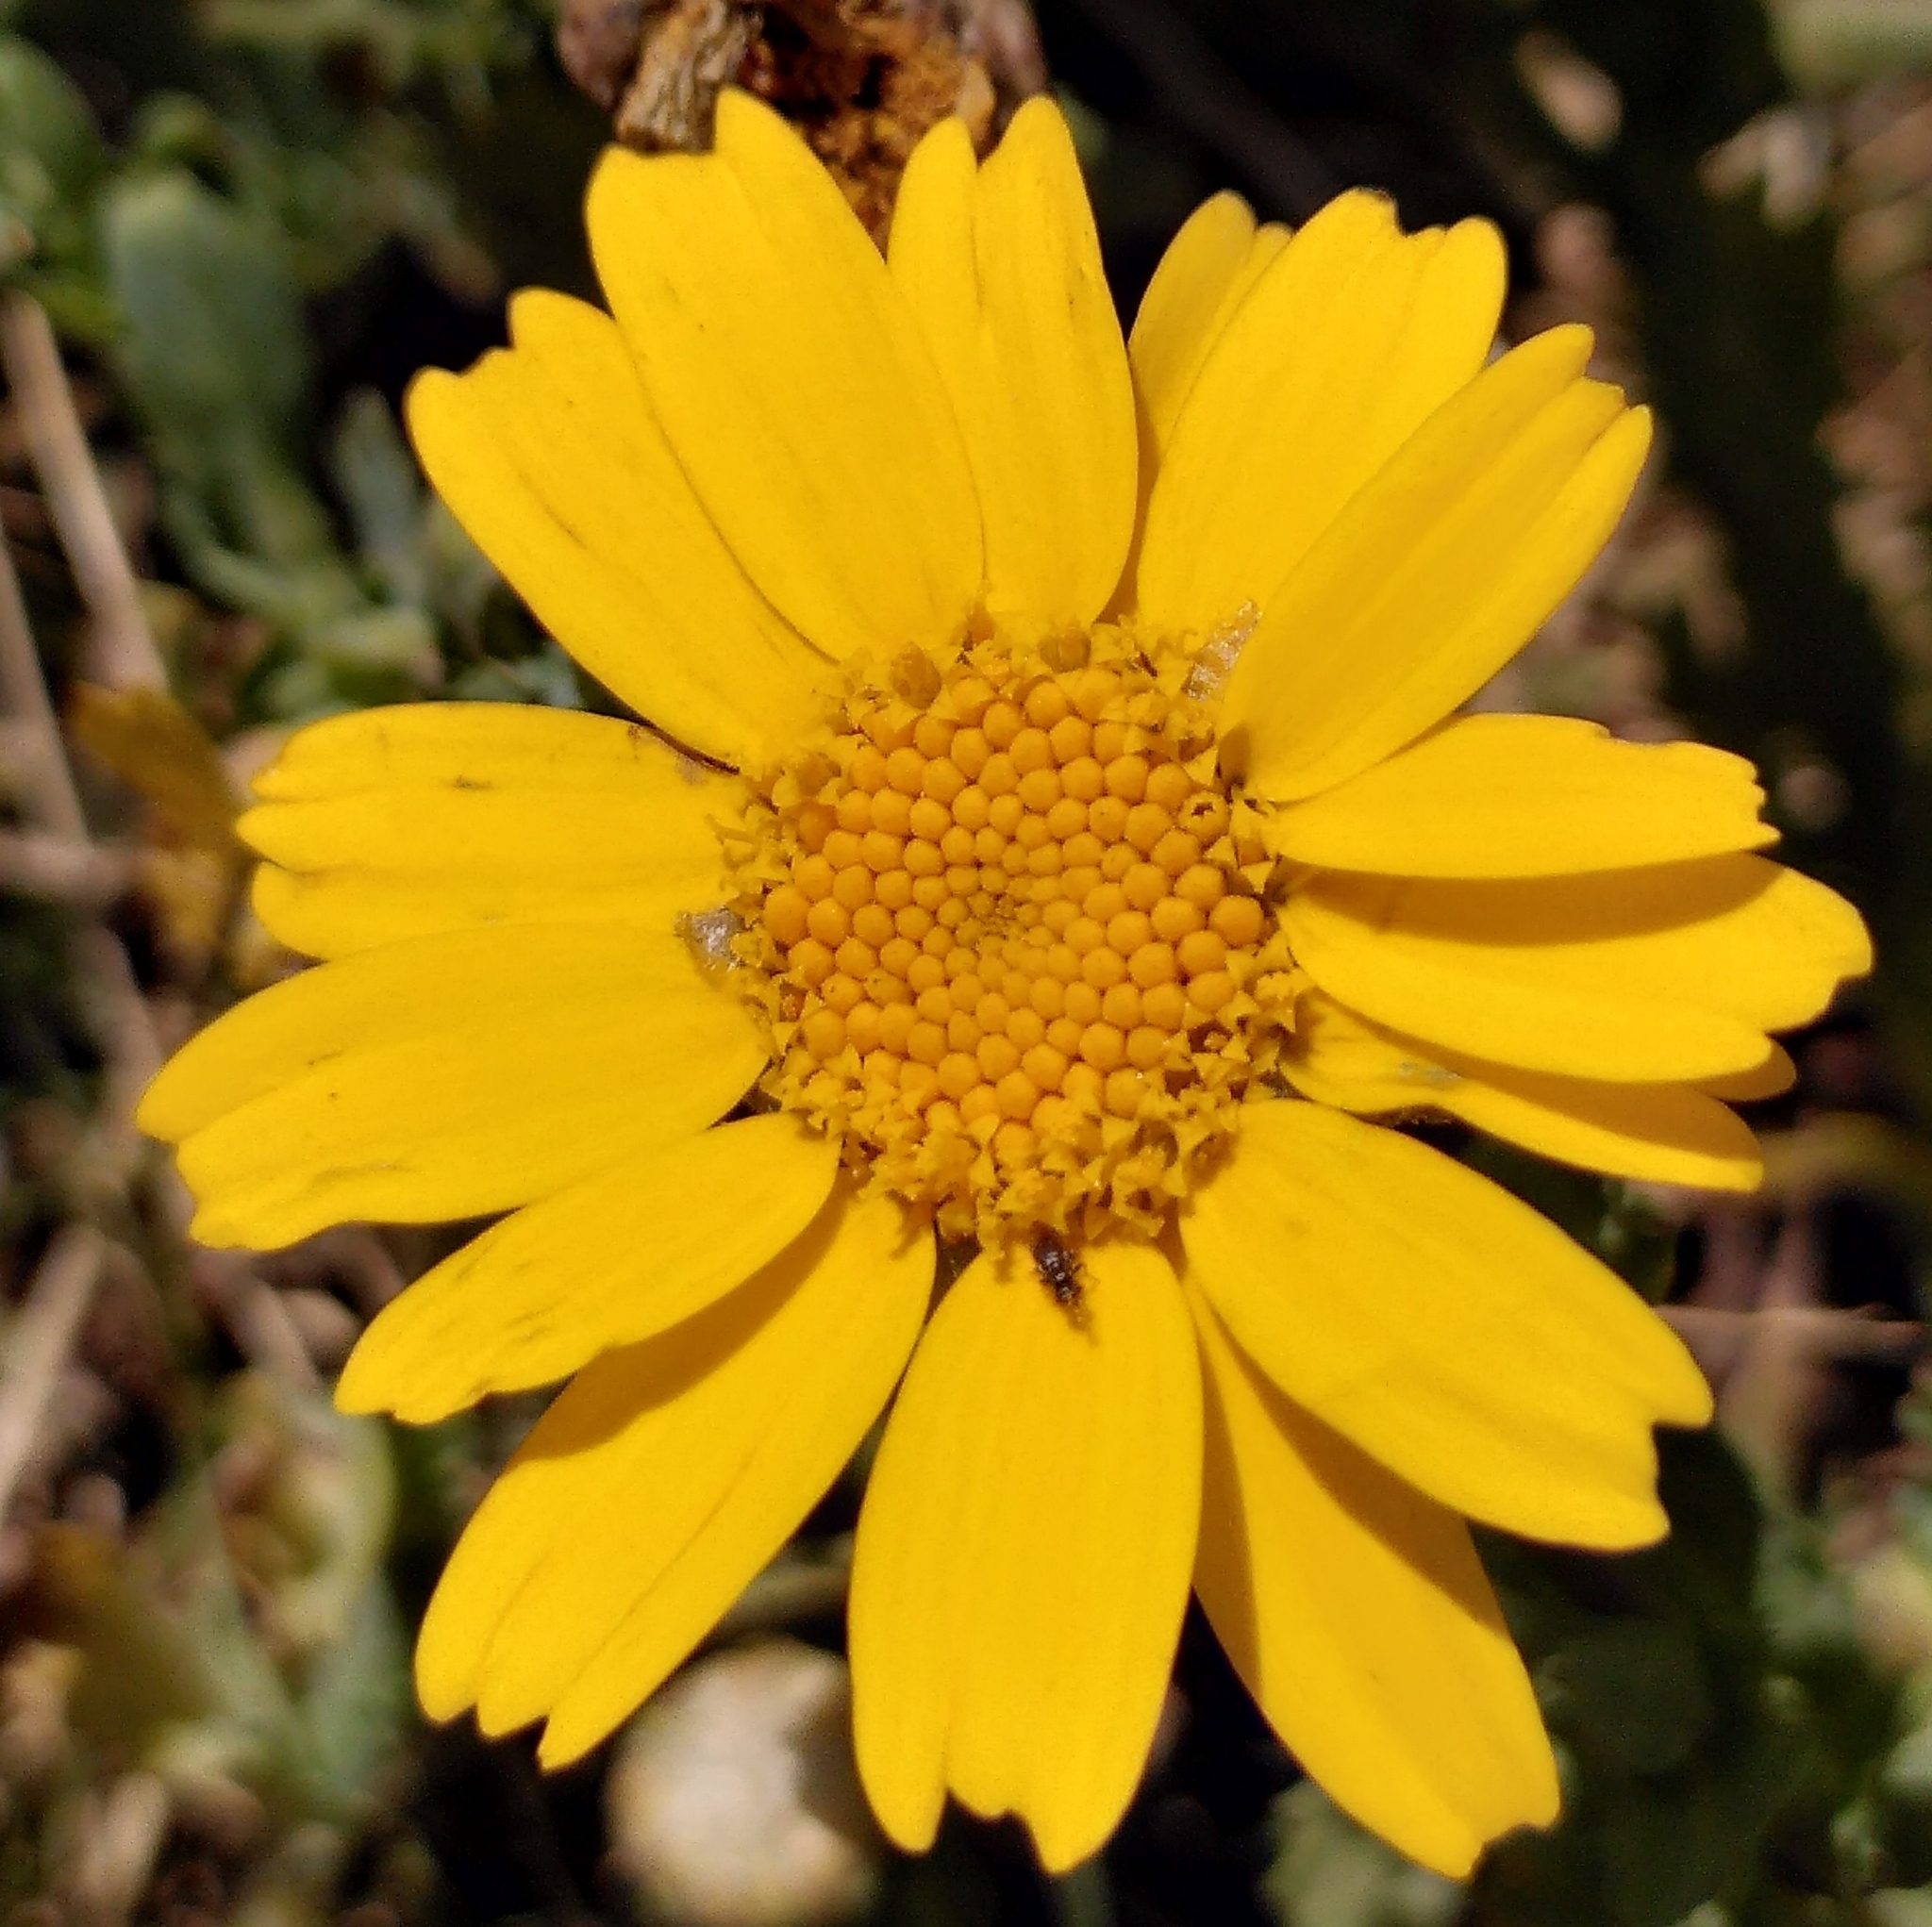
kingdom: Plantae
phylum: Tracheophyta
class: Magnoliopsida
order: Asterales
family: Asteraceae
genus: Glebionis
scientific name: Glebionis segetum
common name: Corndaisy
